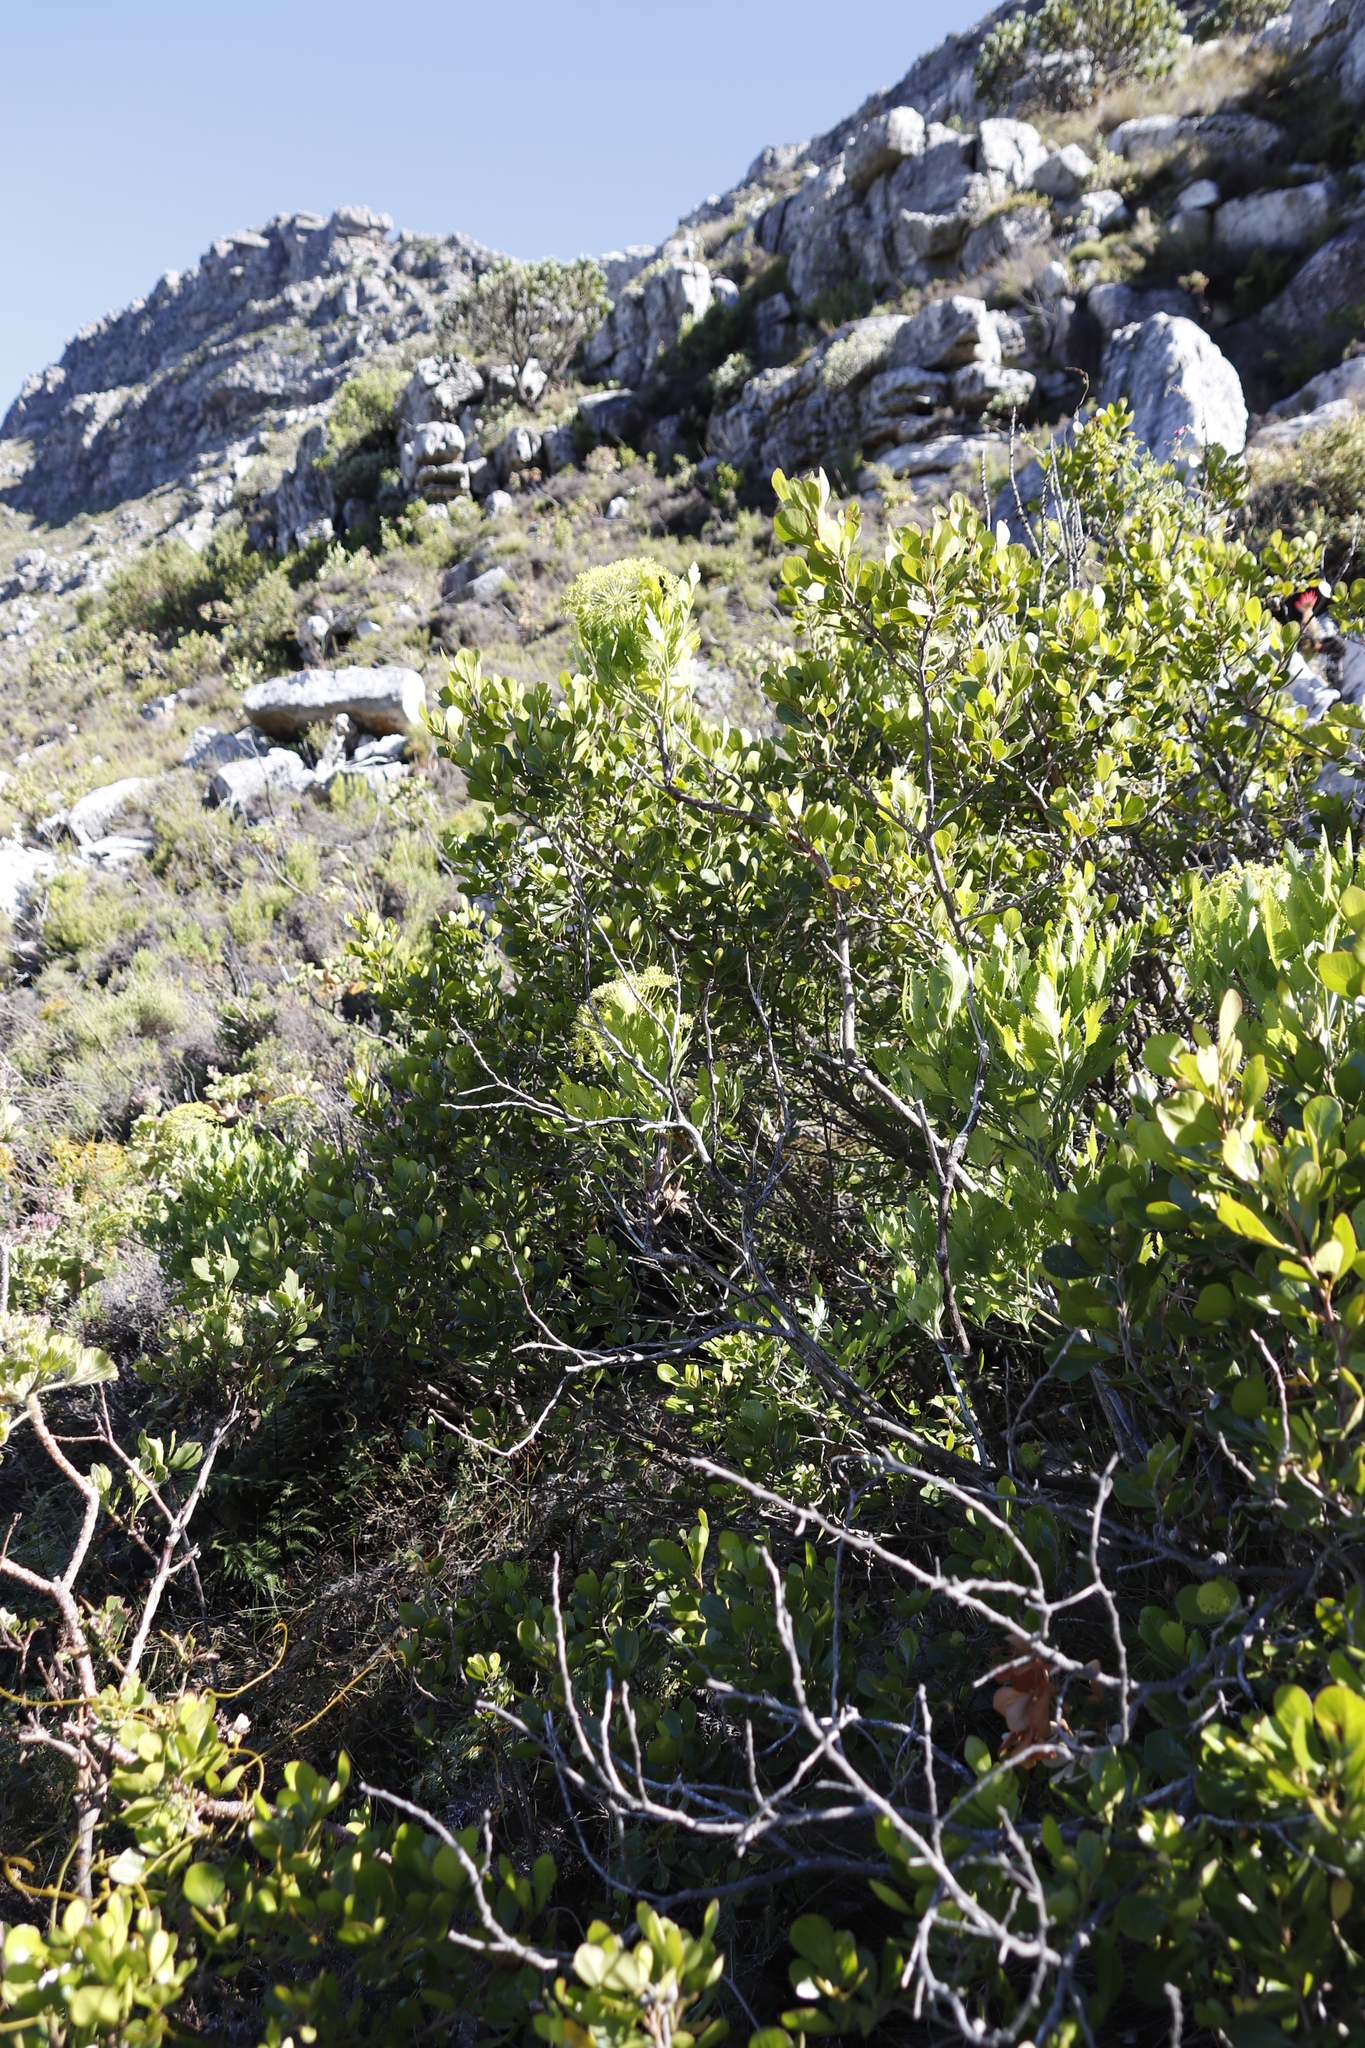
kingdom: Plantae
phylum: Tracheophyta
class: Magnoliopsida
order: Apiales
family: Apiaceae
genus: Notobubon
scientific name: Notobubon galbanum
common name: Blisterbush
